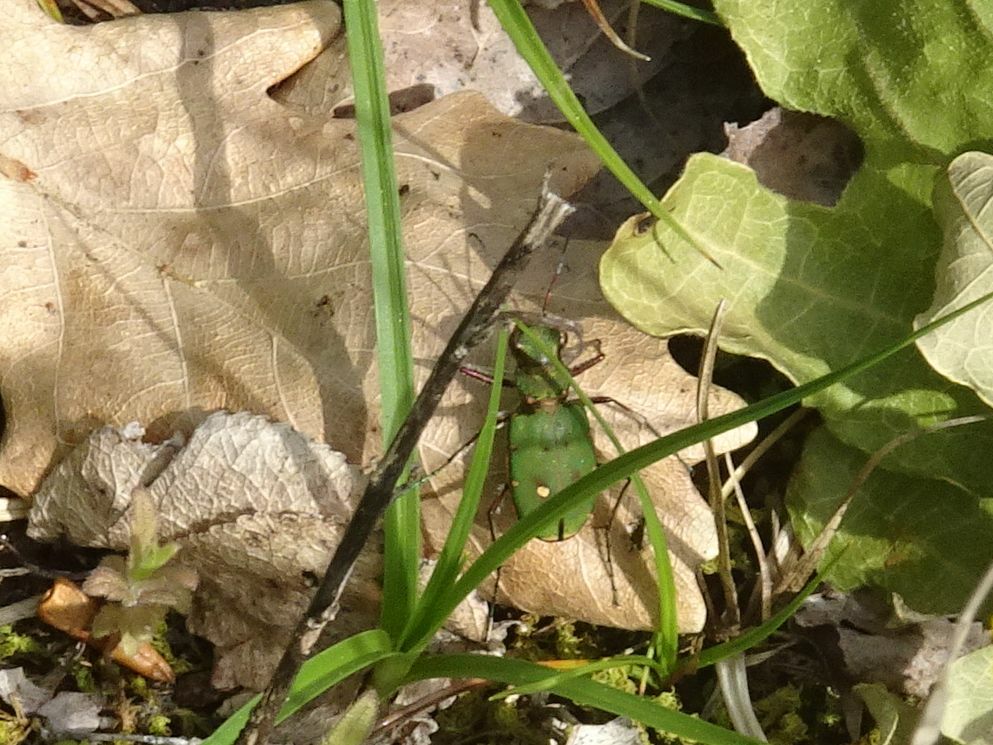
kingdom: Animalia
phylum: Arthropoda
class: Insecta
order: Coleoptera
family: Carabidae
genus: Cicindela
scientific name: Cicindela campestris
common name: Common tiger beetle
